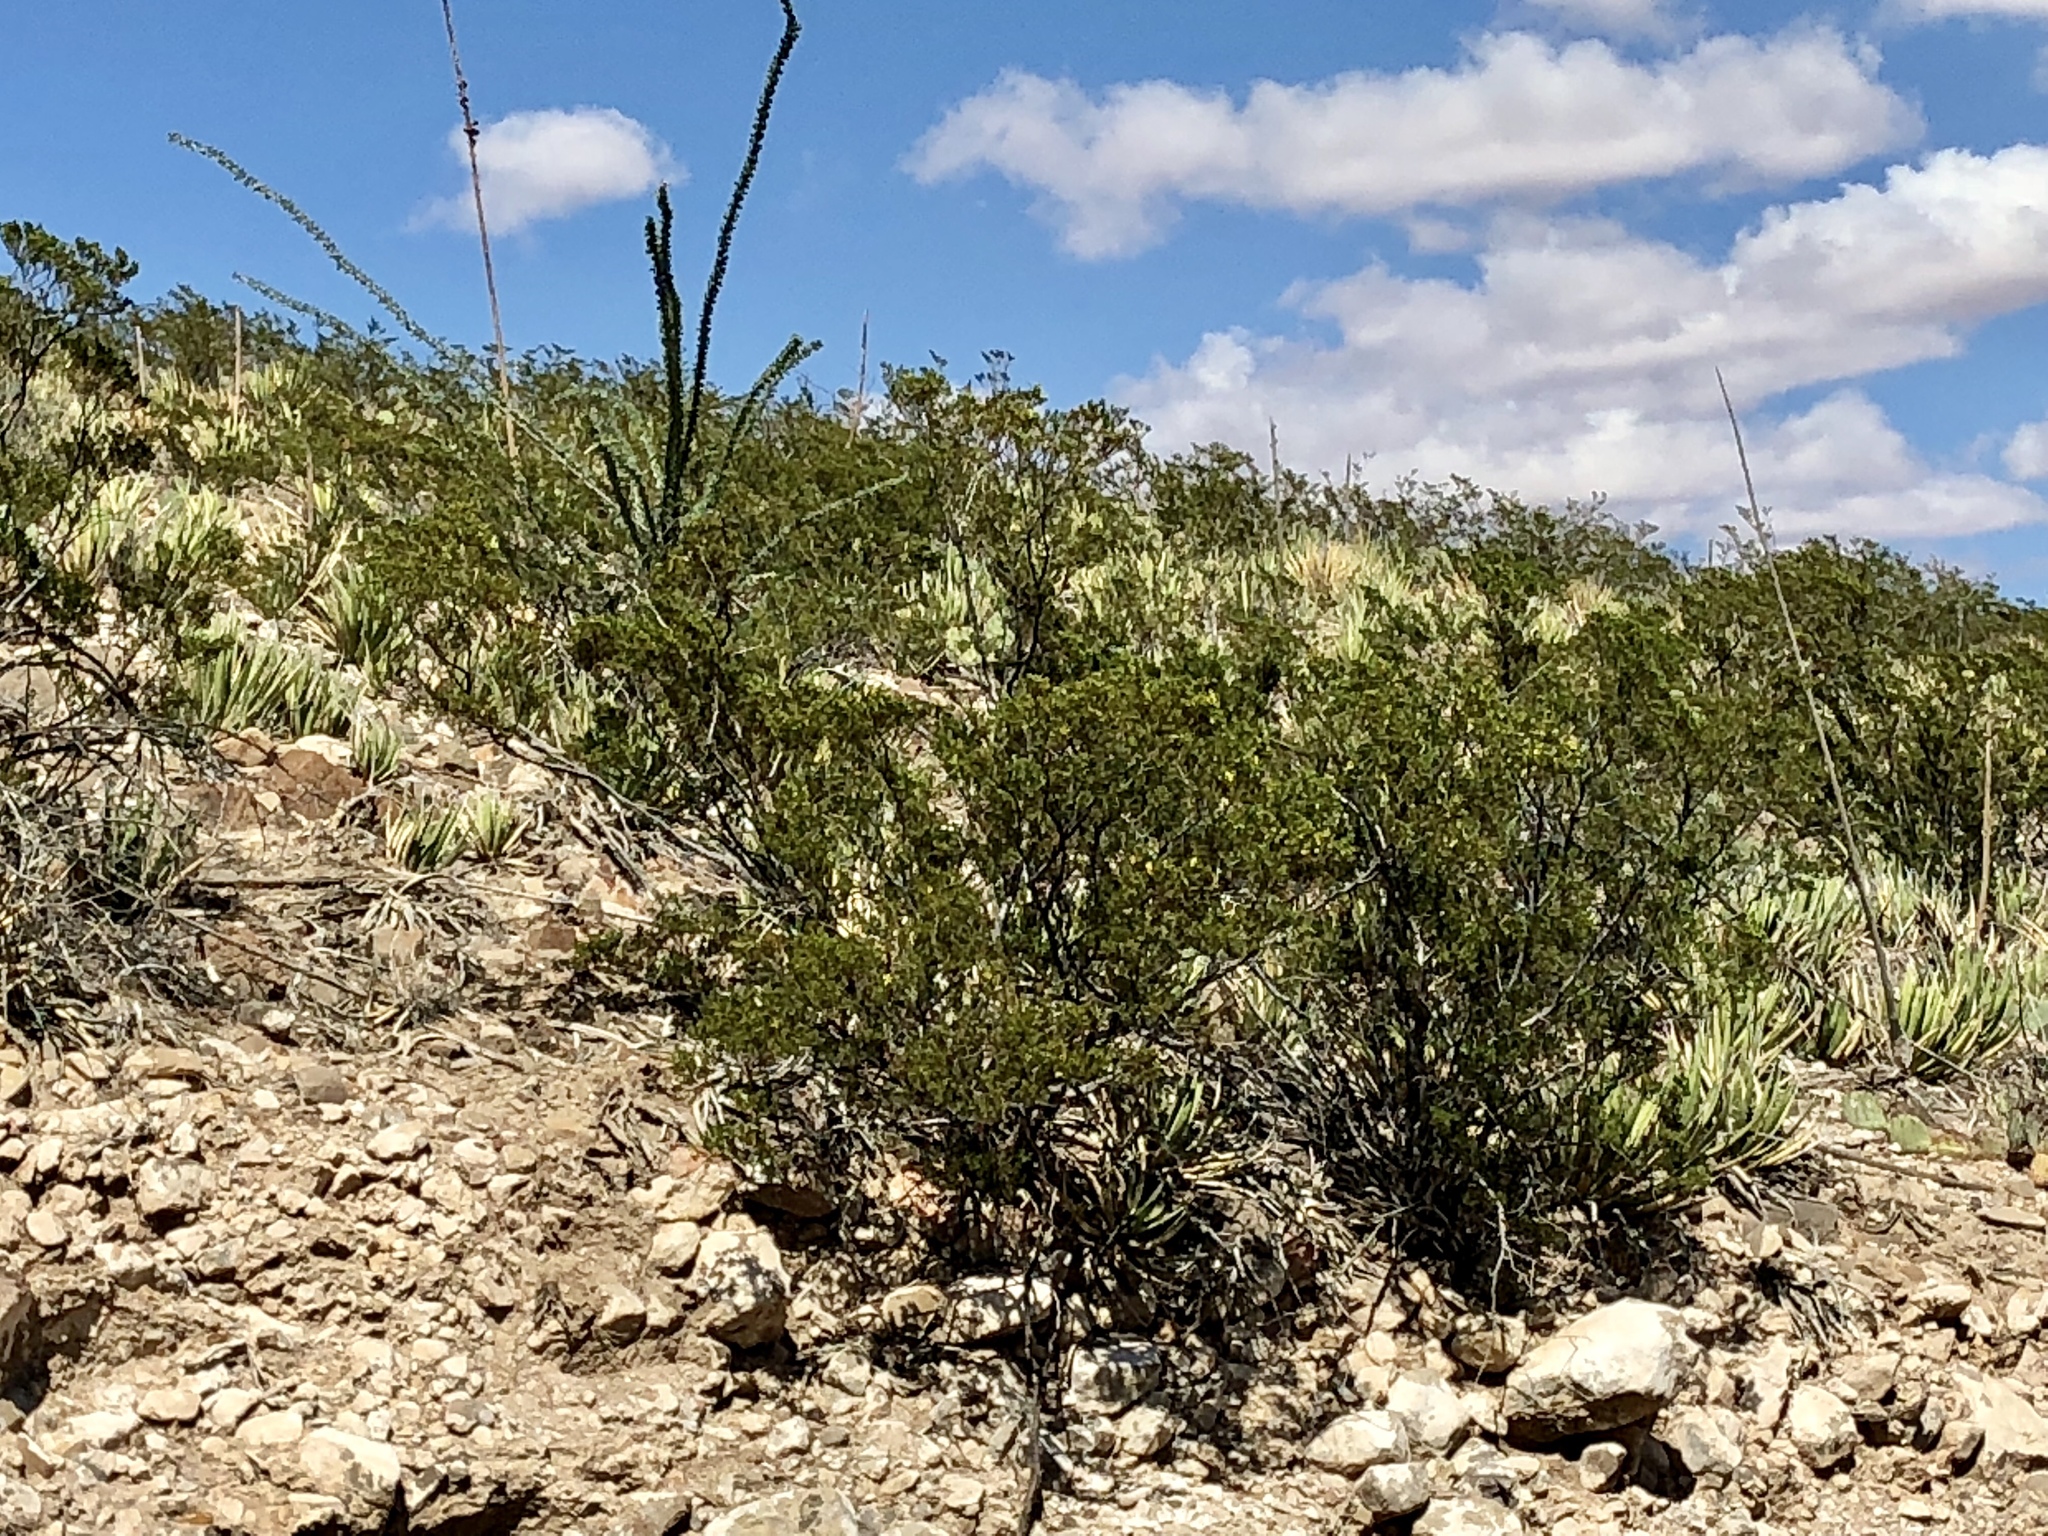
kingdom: Plantae
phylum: Tracheophyta
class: Magnoliopsida
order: Zygophyllales
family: Zygophyllaceae
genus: Larrea
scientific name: Larrea tridentata
